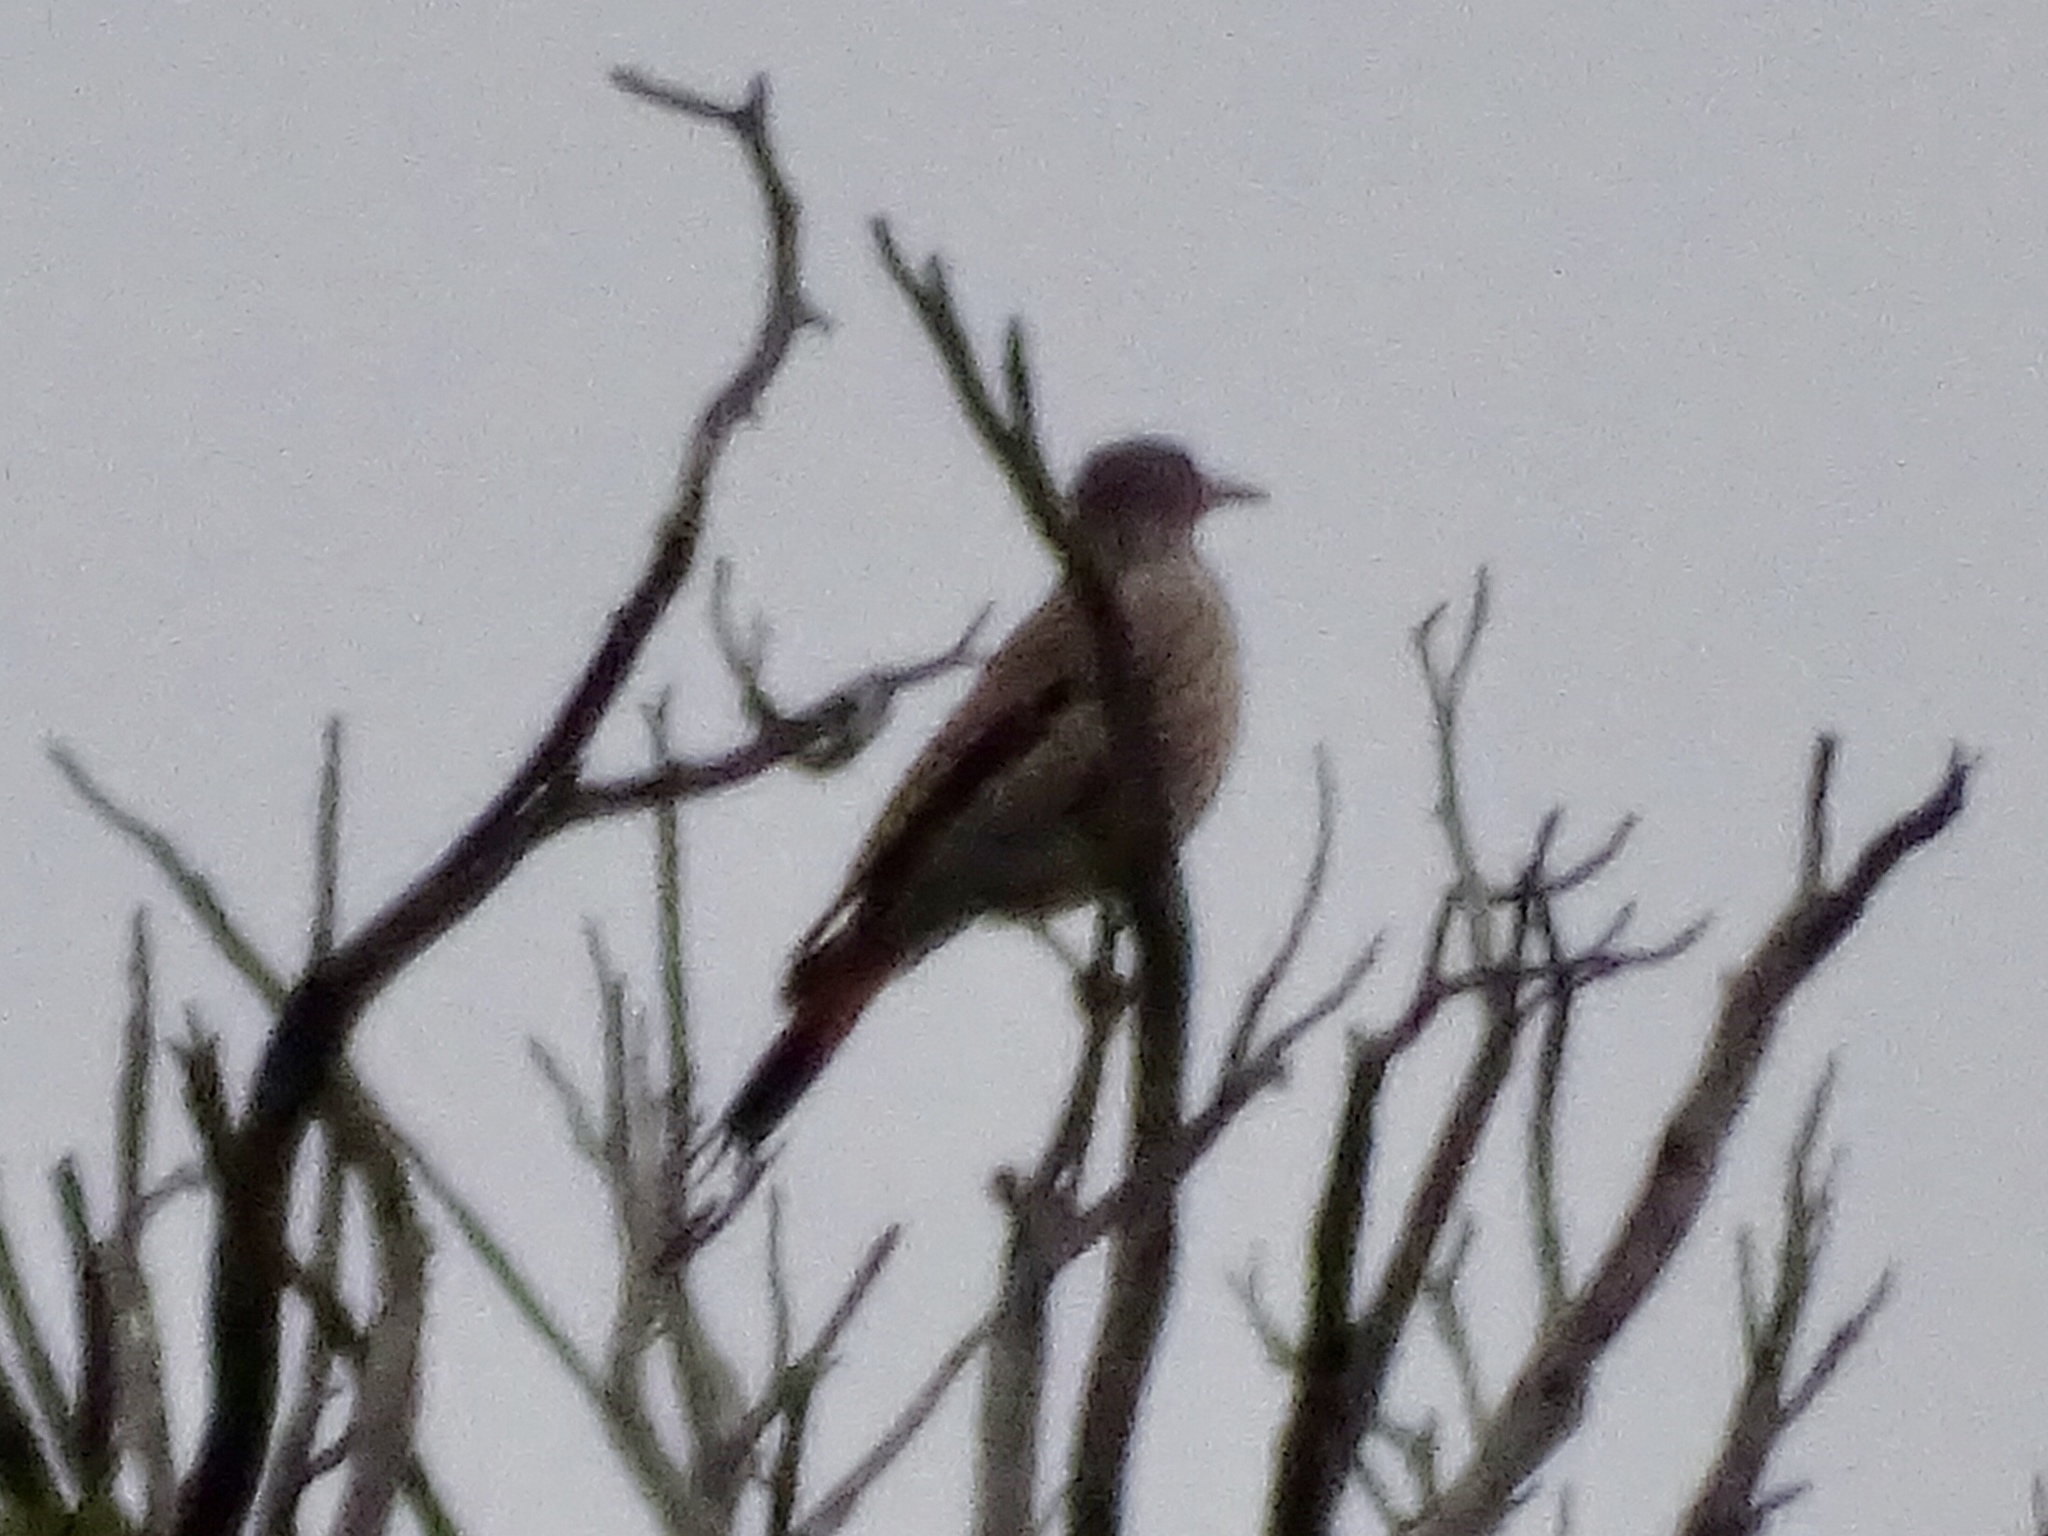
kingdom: Animalia
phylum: Chordata
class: Aves
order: Piciformes
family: Picidae
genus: Colaptes
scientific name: Colaptes auratus
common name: Northern flicker
